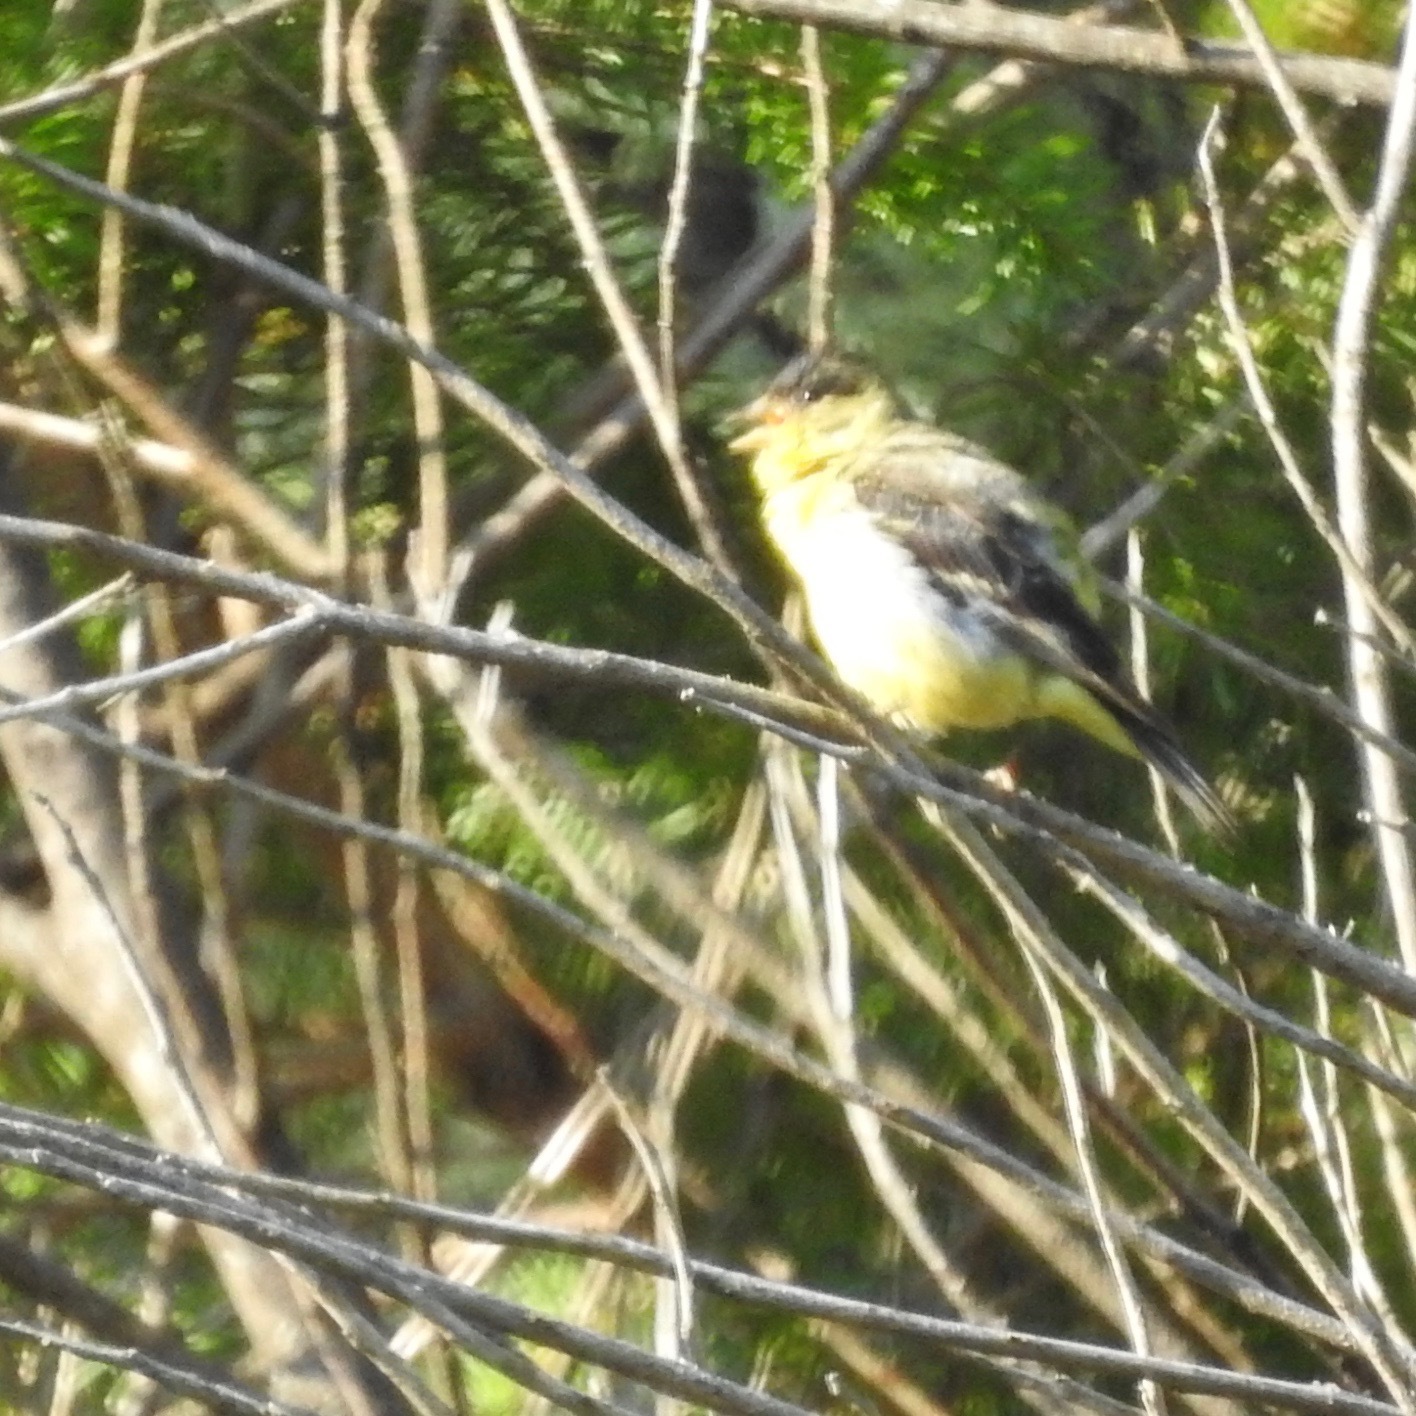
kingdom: Animalia
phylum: Chordata
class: Aves
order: Passeriformes
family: Fringillidae
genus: Spinus
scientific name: Spinus psaltria
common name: Lesser goldfinch
